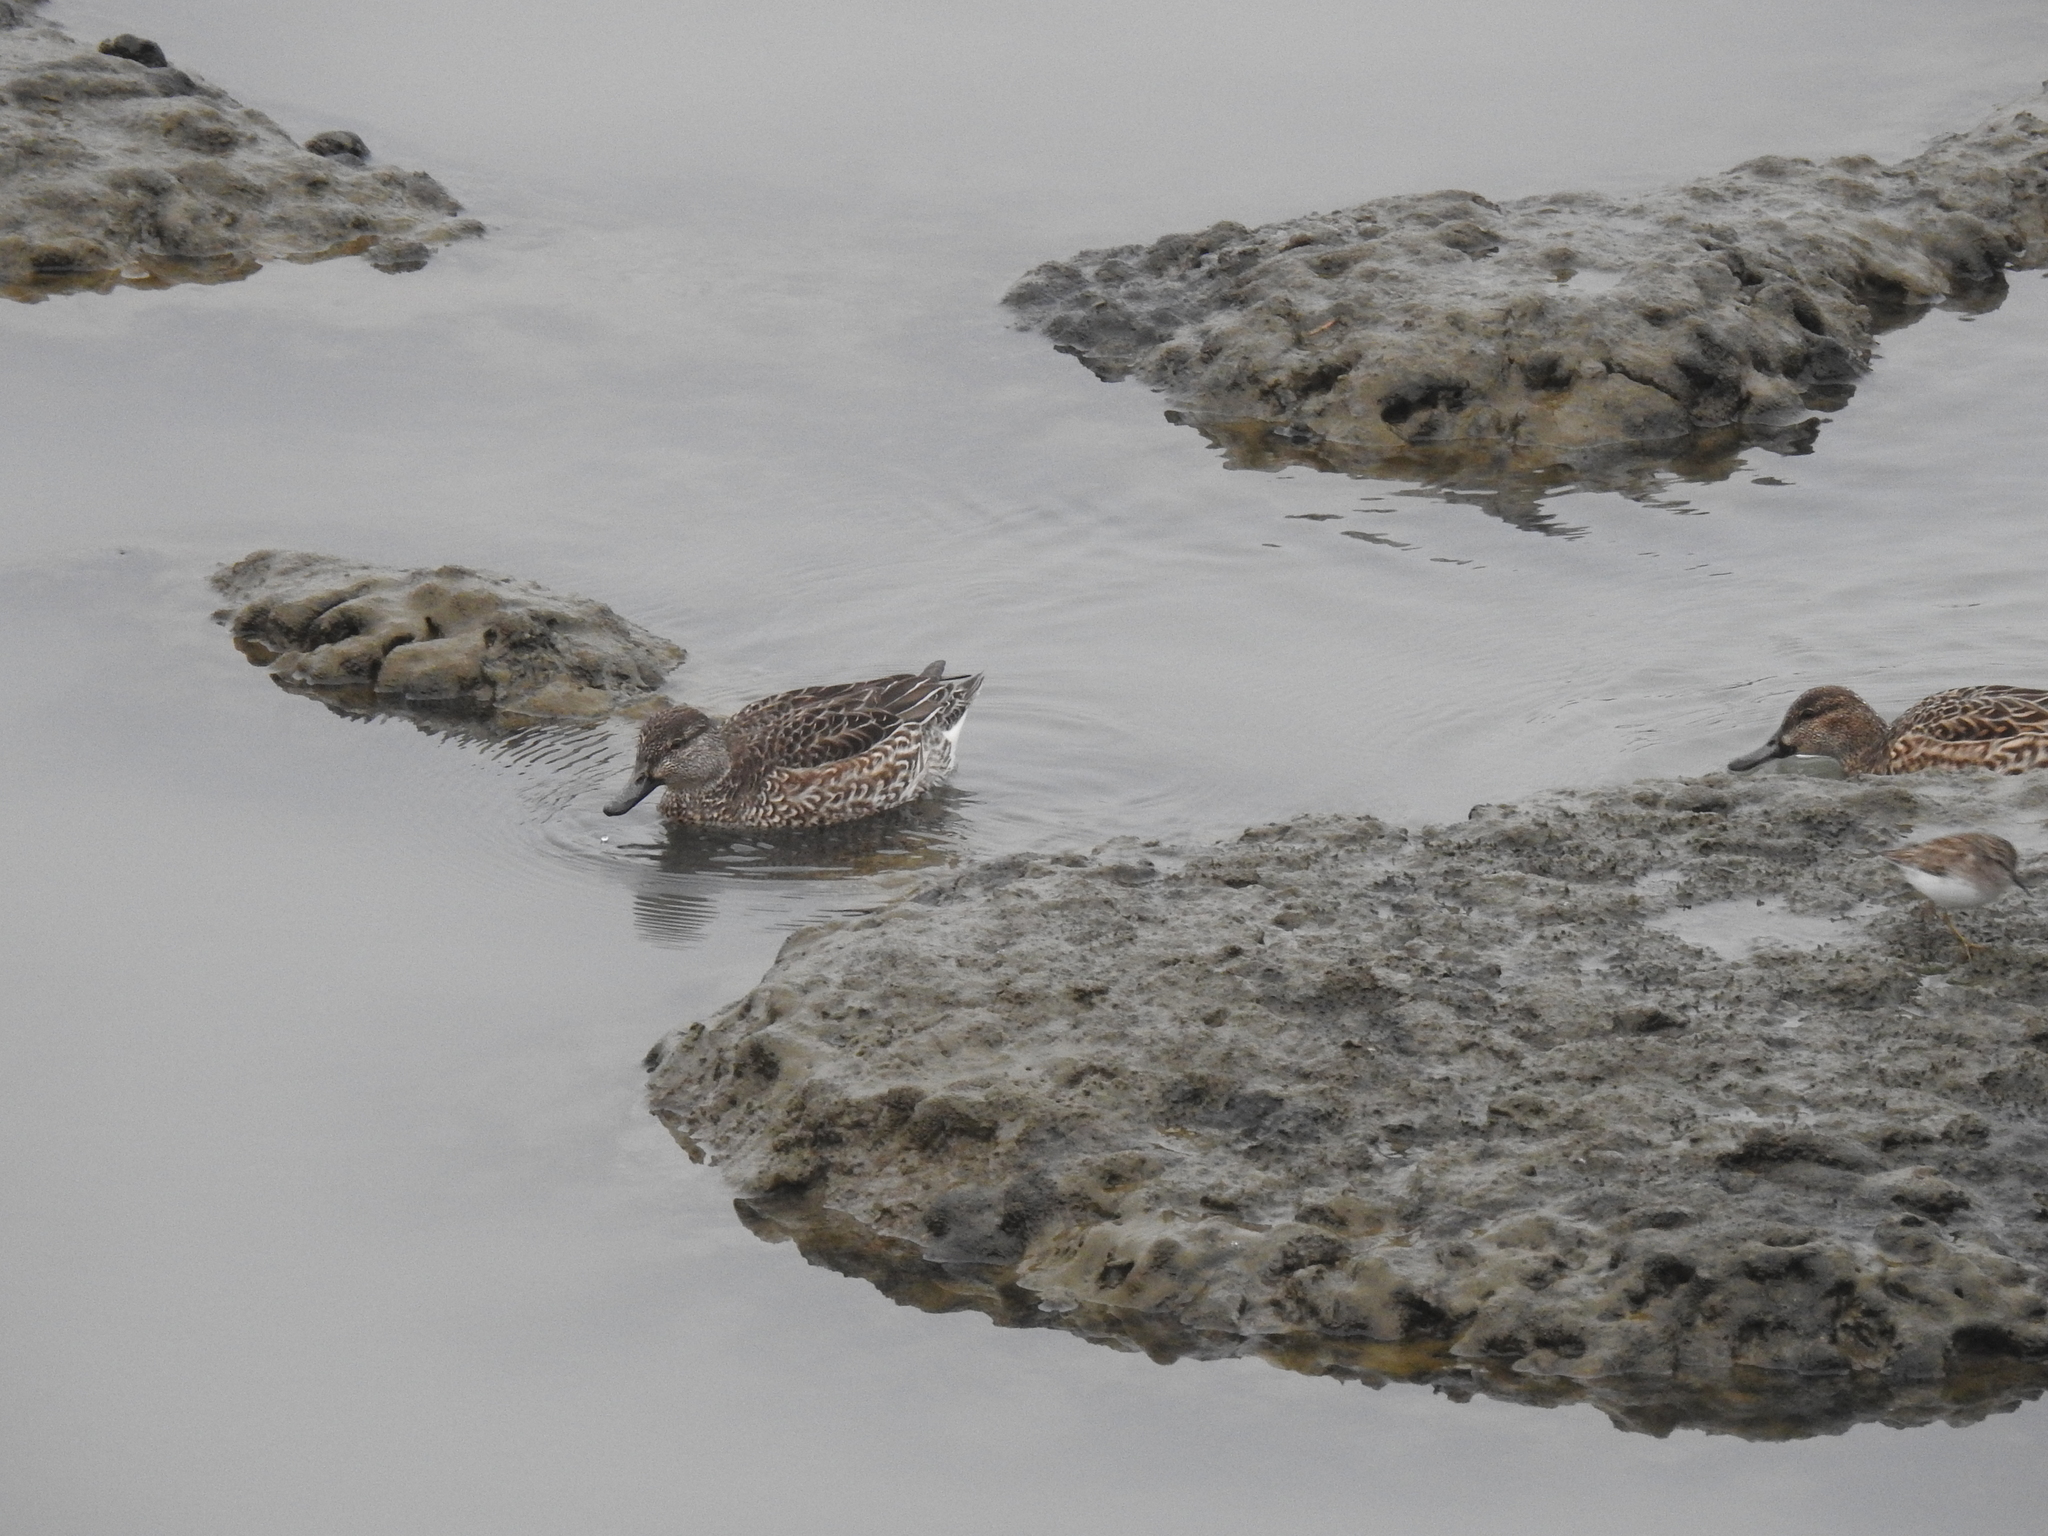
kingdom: Animalia
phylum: Chordata
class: Aves
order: Anseriformes
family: Anatidae
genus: Anas
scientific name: Anas crecca
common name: Eurasian teal
